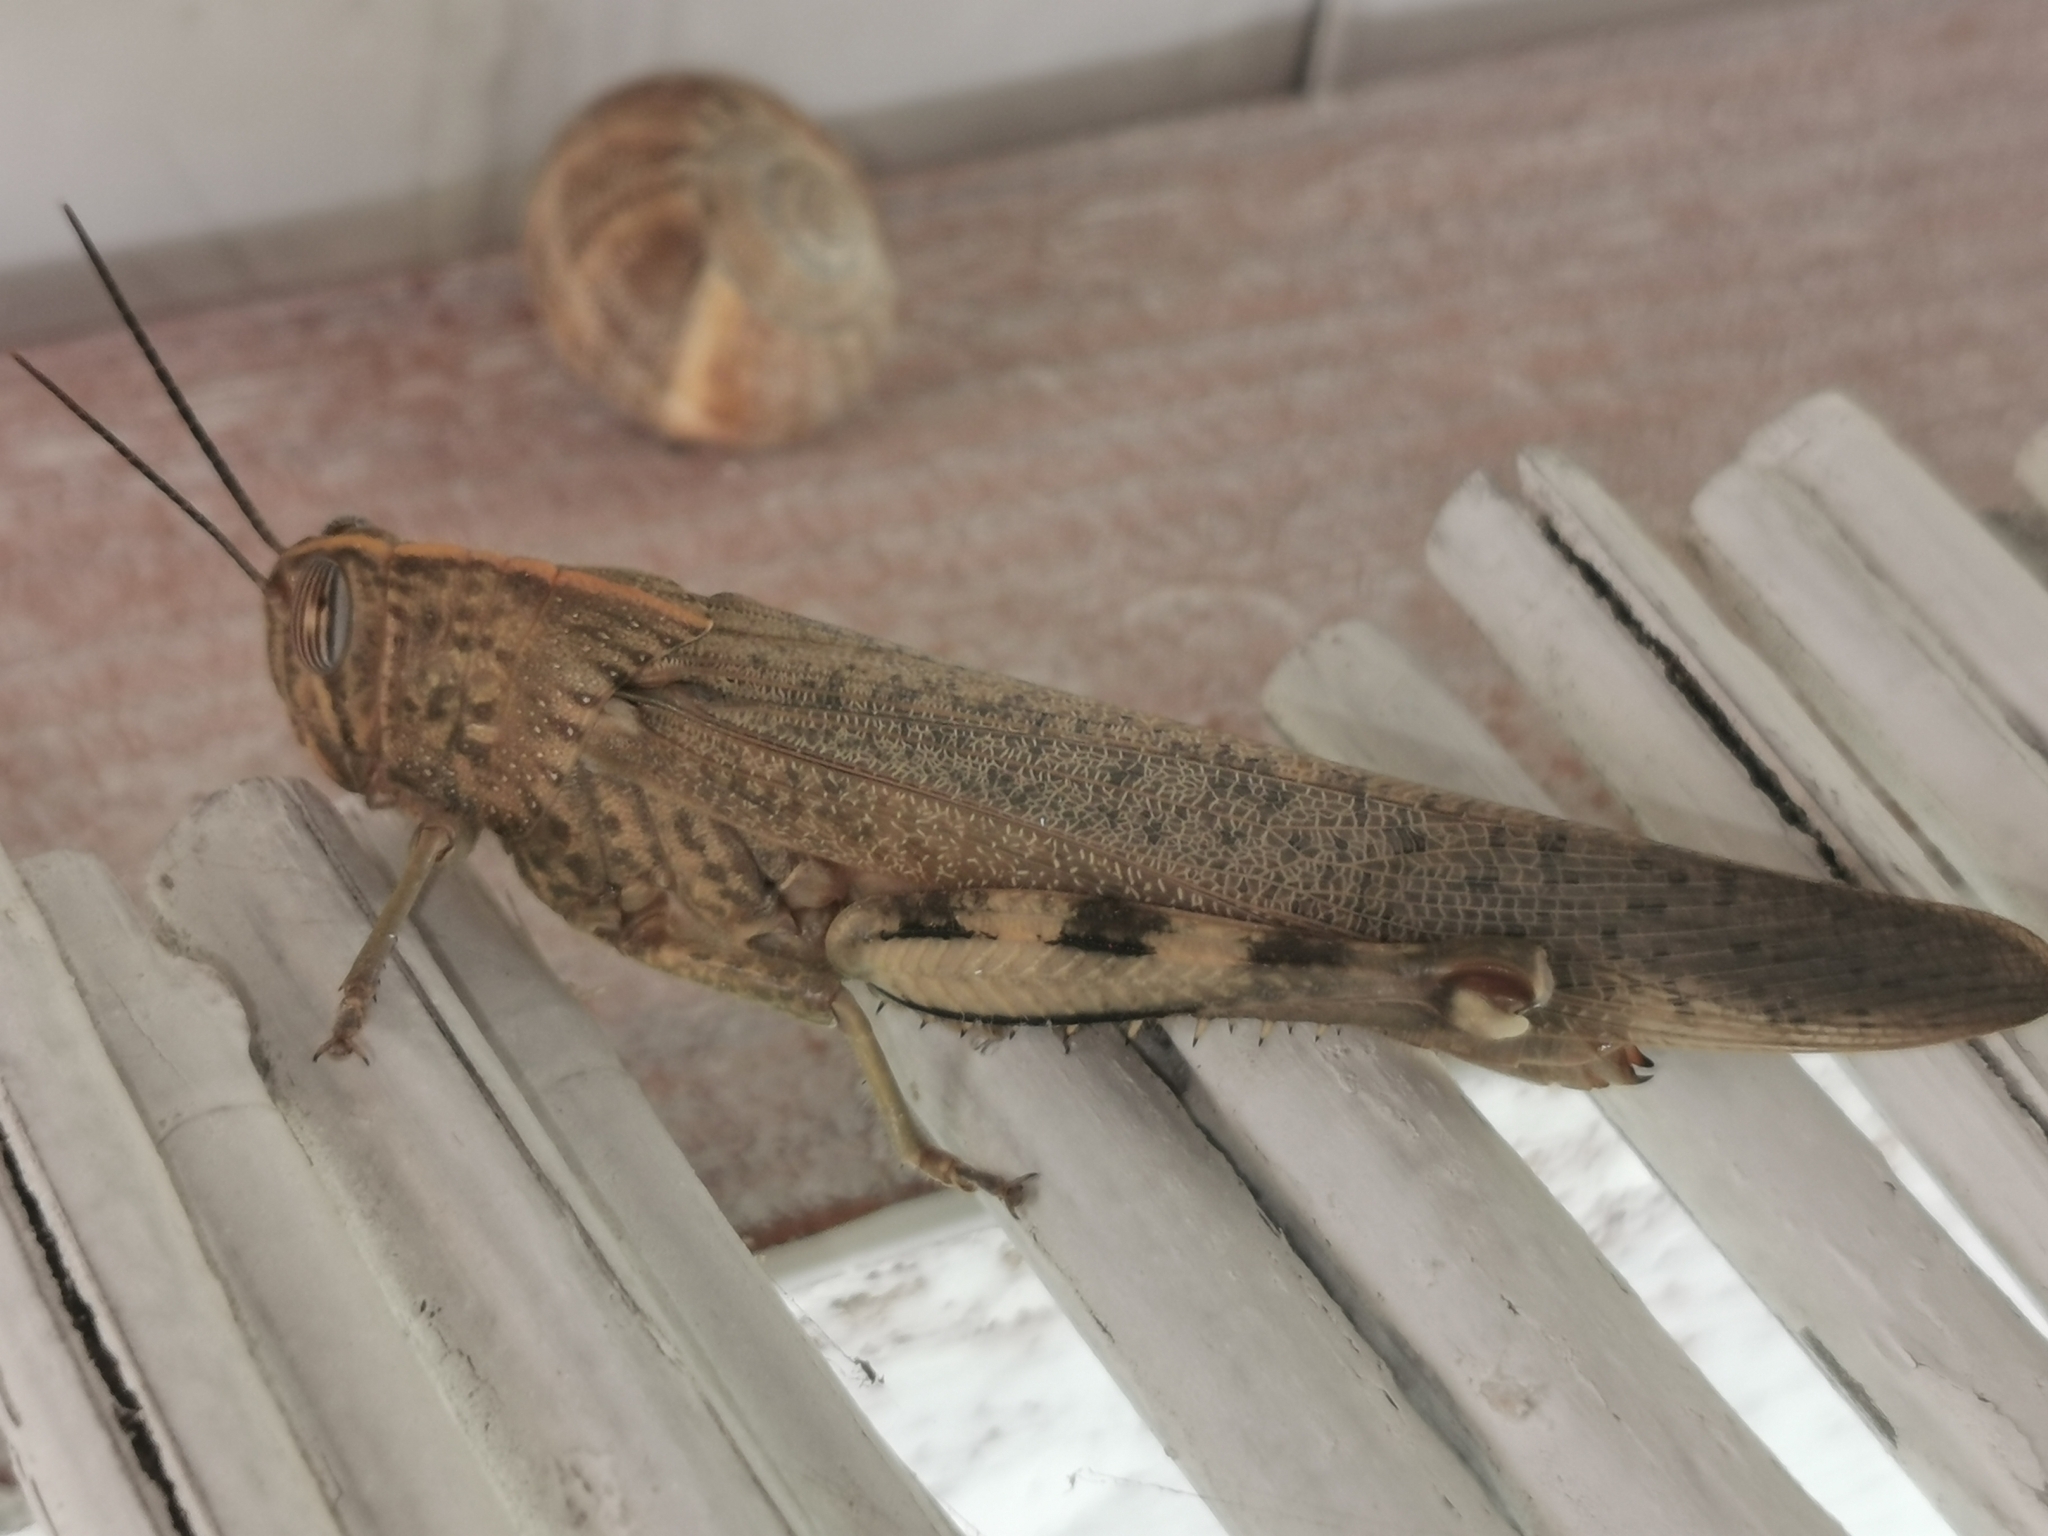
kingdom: Animalia
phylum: Arthropoda
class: Insecta
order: Orthoptera
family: Acrididae
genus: Anacridium
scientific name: Anacridium aegyptium
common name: Egyptian grasshopper
